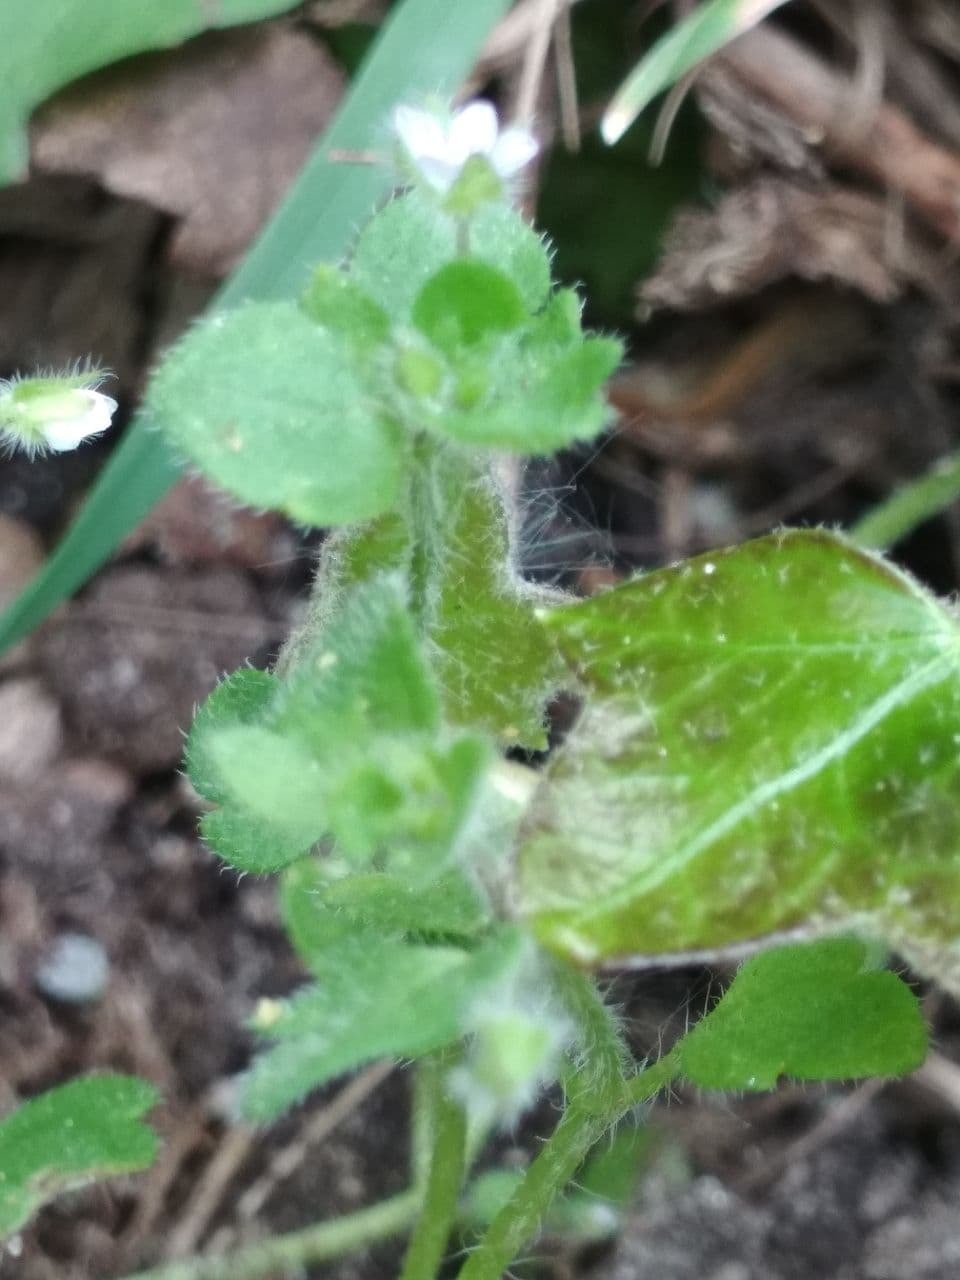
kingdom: Plantae
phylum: Tracheophyta
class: Magnoliopsida
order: Lamiales
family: Plantaginaceae
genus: Veronica
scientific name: Veronica sublobata
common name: False ivy-leaved speedwell
